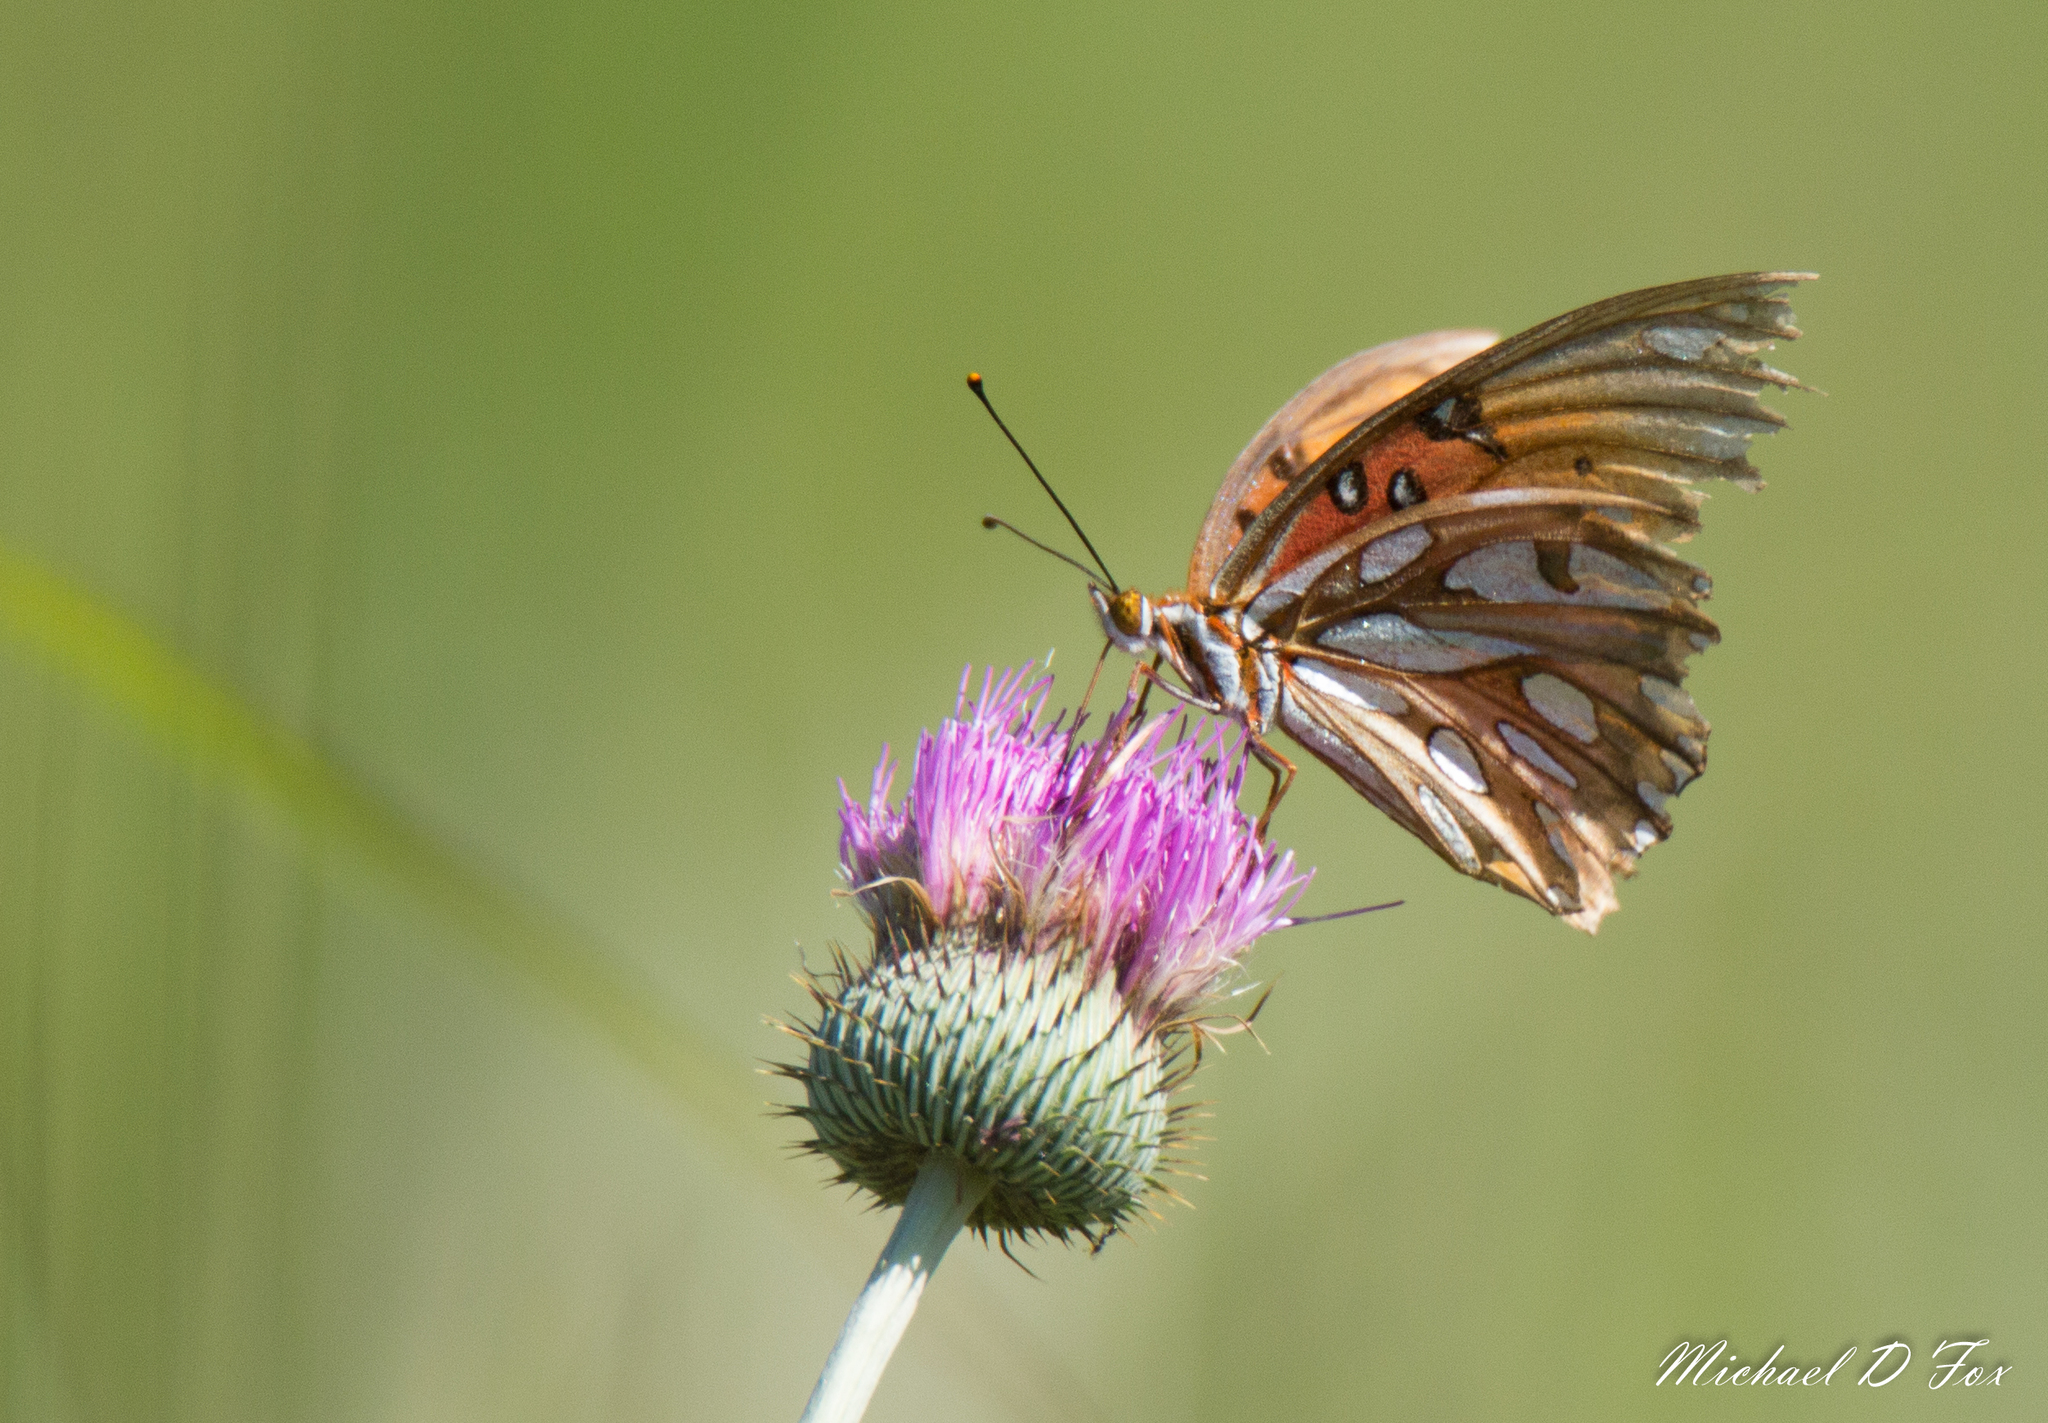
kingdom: Animalia
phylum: Arthropoda
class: Insecta
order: Lepidoptera
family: Nymphalidae
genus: Dione
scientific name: Dione vanillae
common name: Gulf fritillary
